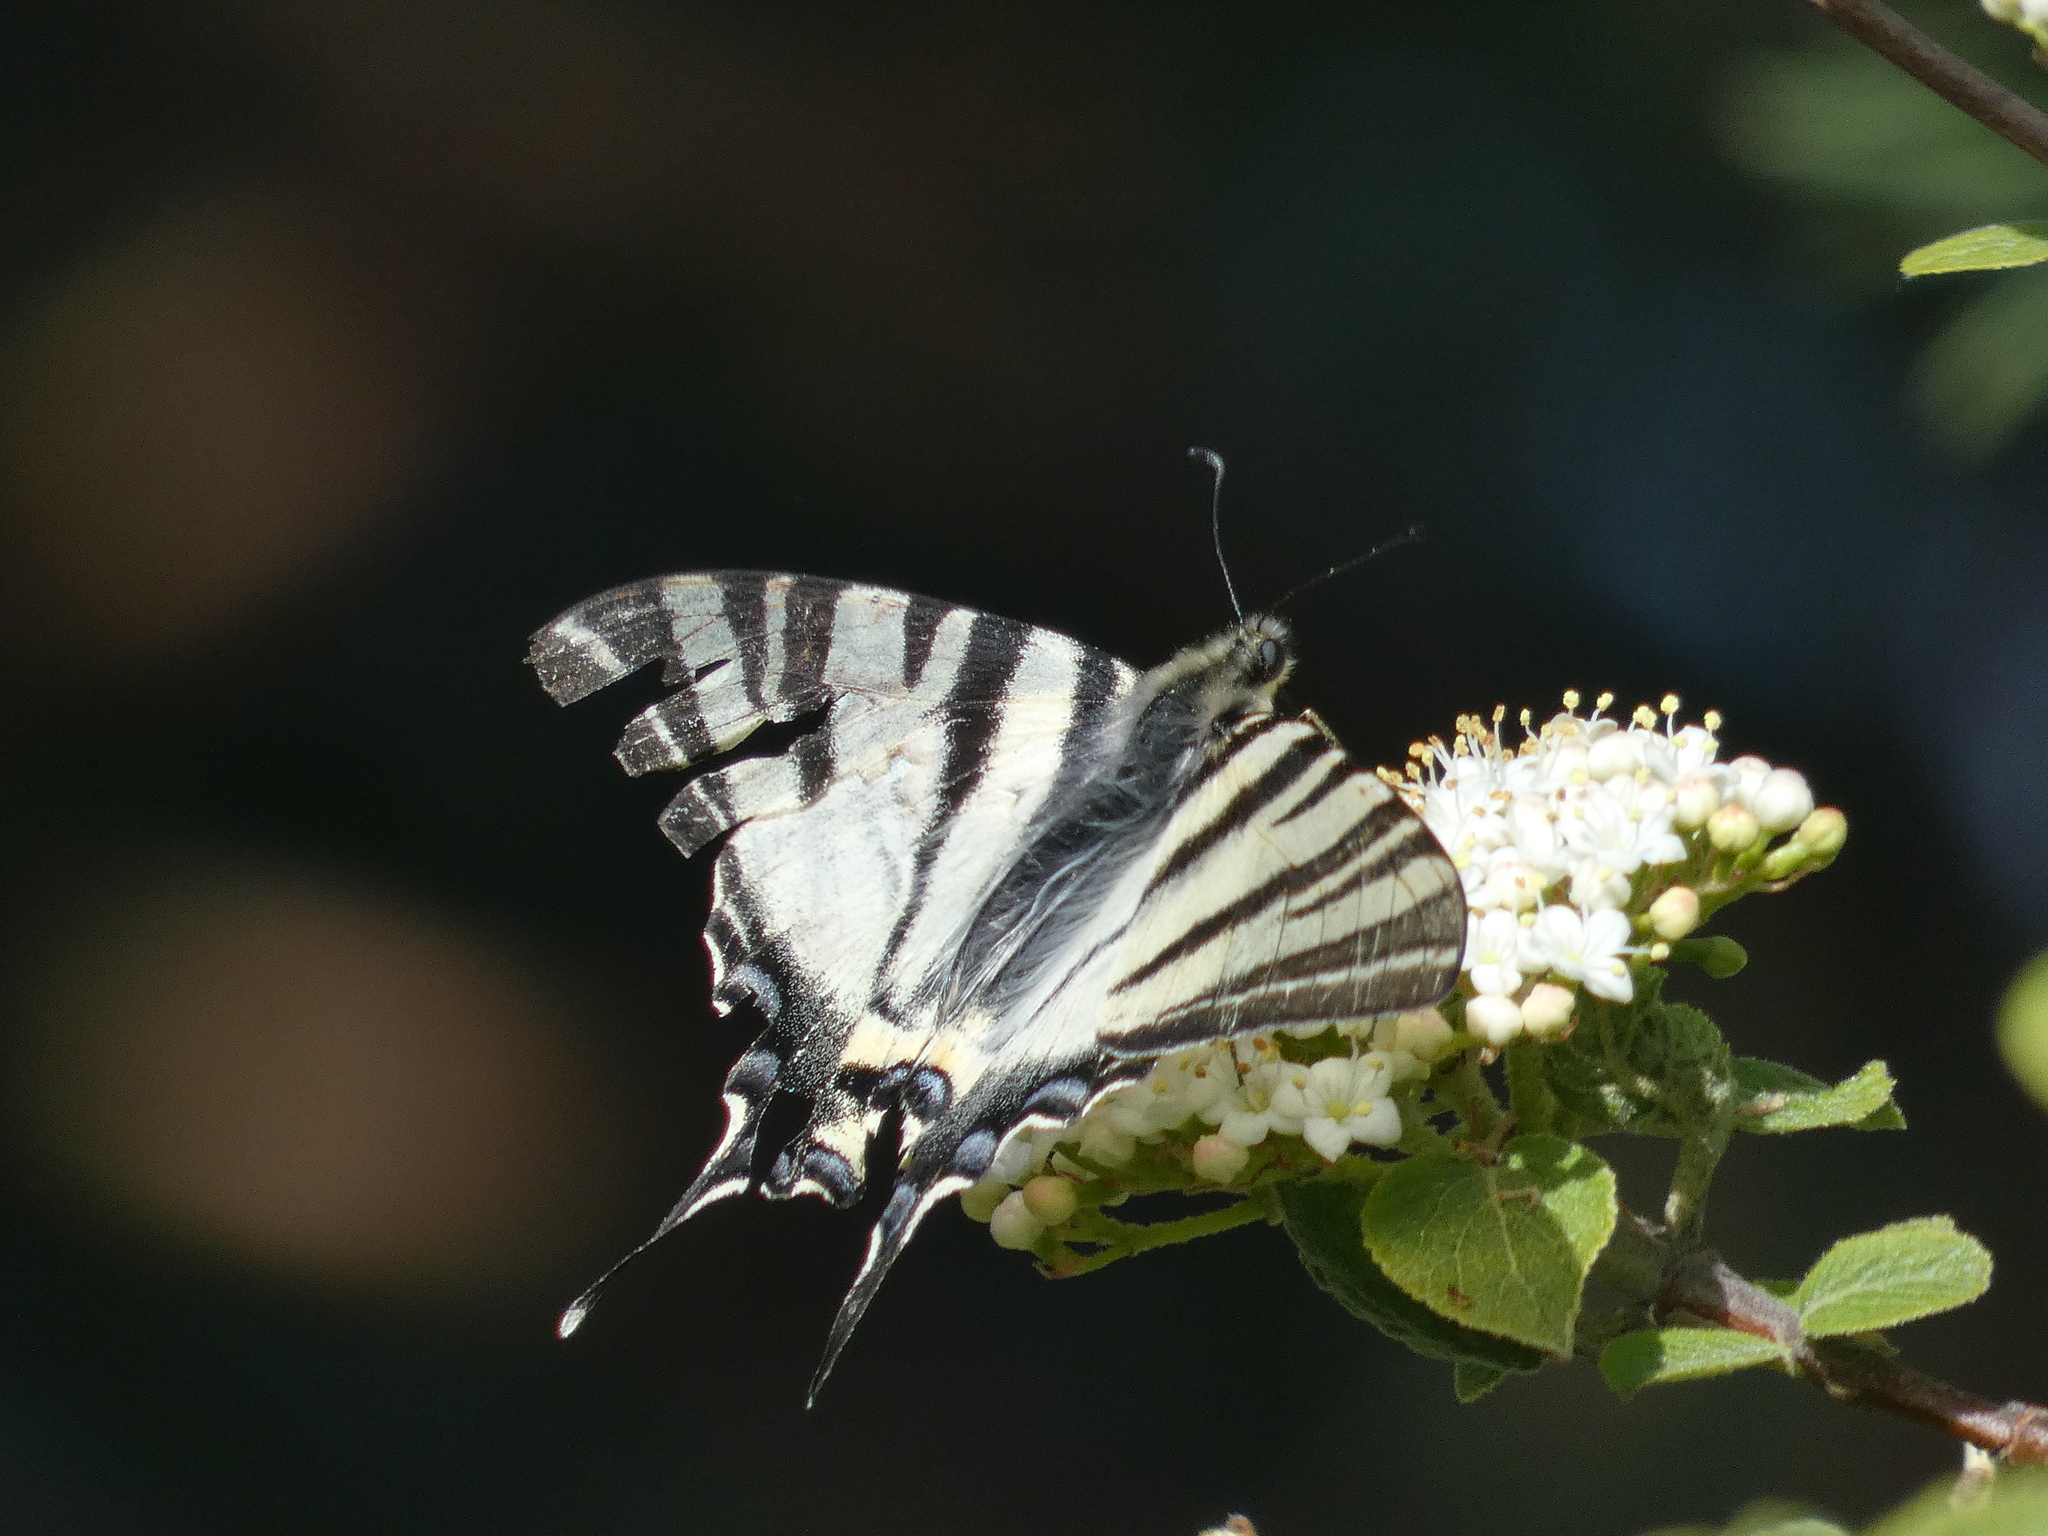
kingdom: Animalia
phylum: Arthropoda
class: Insecta
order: Lepidoptera
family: Papilionidae
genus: Iphiclides
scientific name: Iphiclides podalirius
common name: Scarce swallowtail
